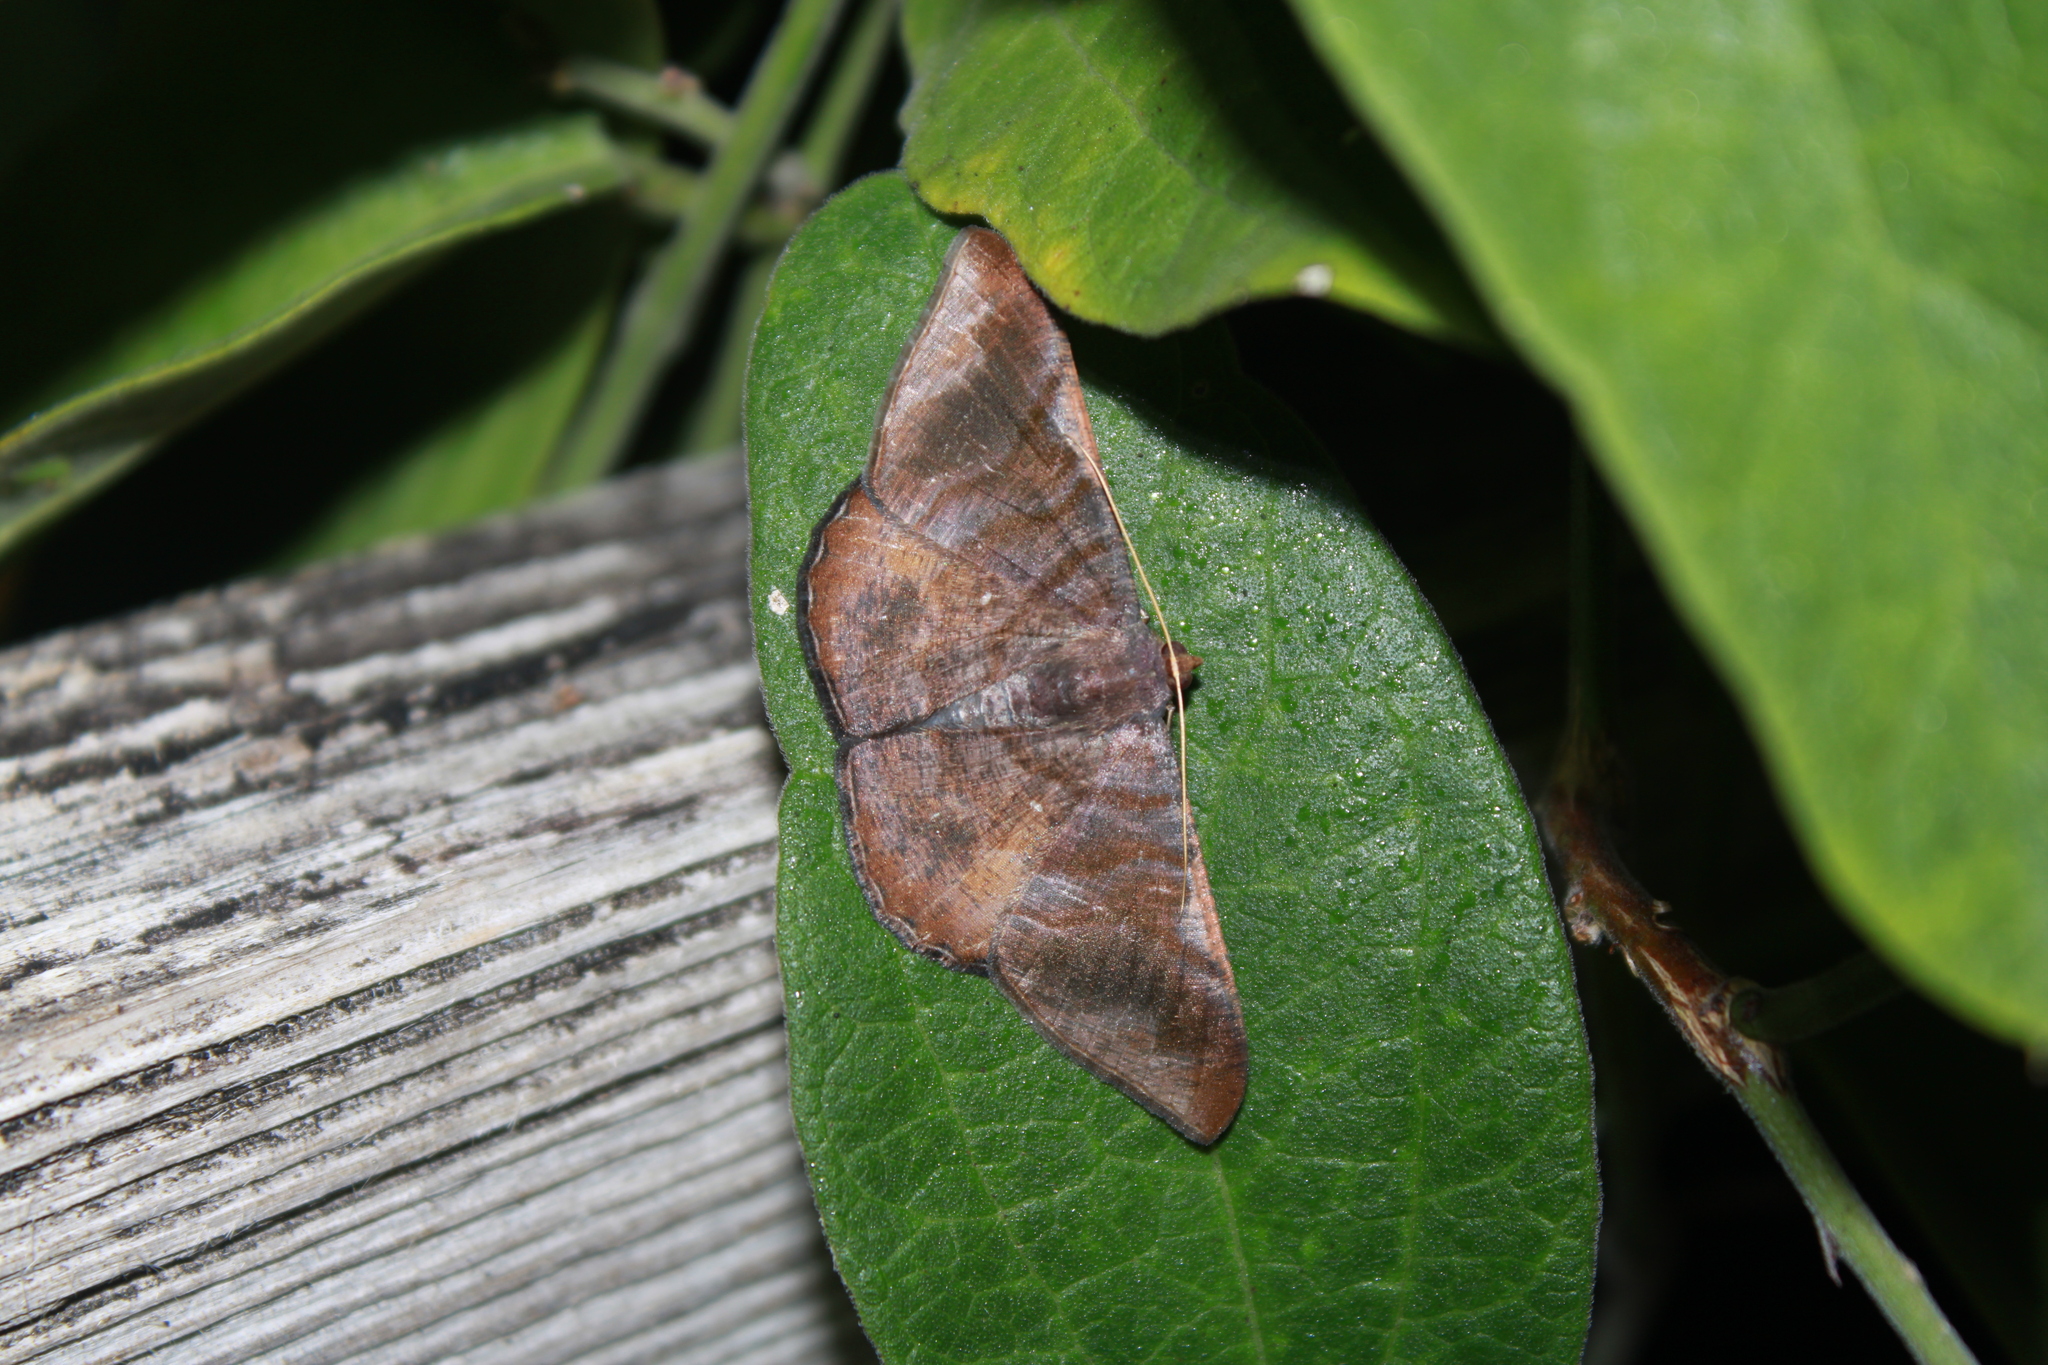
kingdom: Animalia
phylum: Arthropoda
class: Insecta
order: Lepidoptera
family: Geometridae
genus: Sphacelodes
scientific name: Sphacelodes vulneraria
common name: Looper moth
